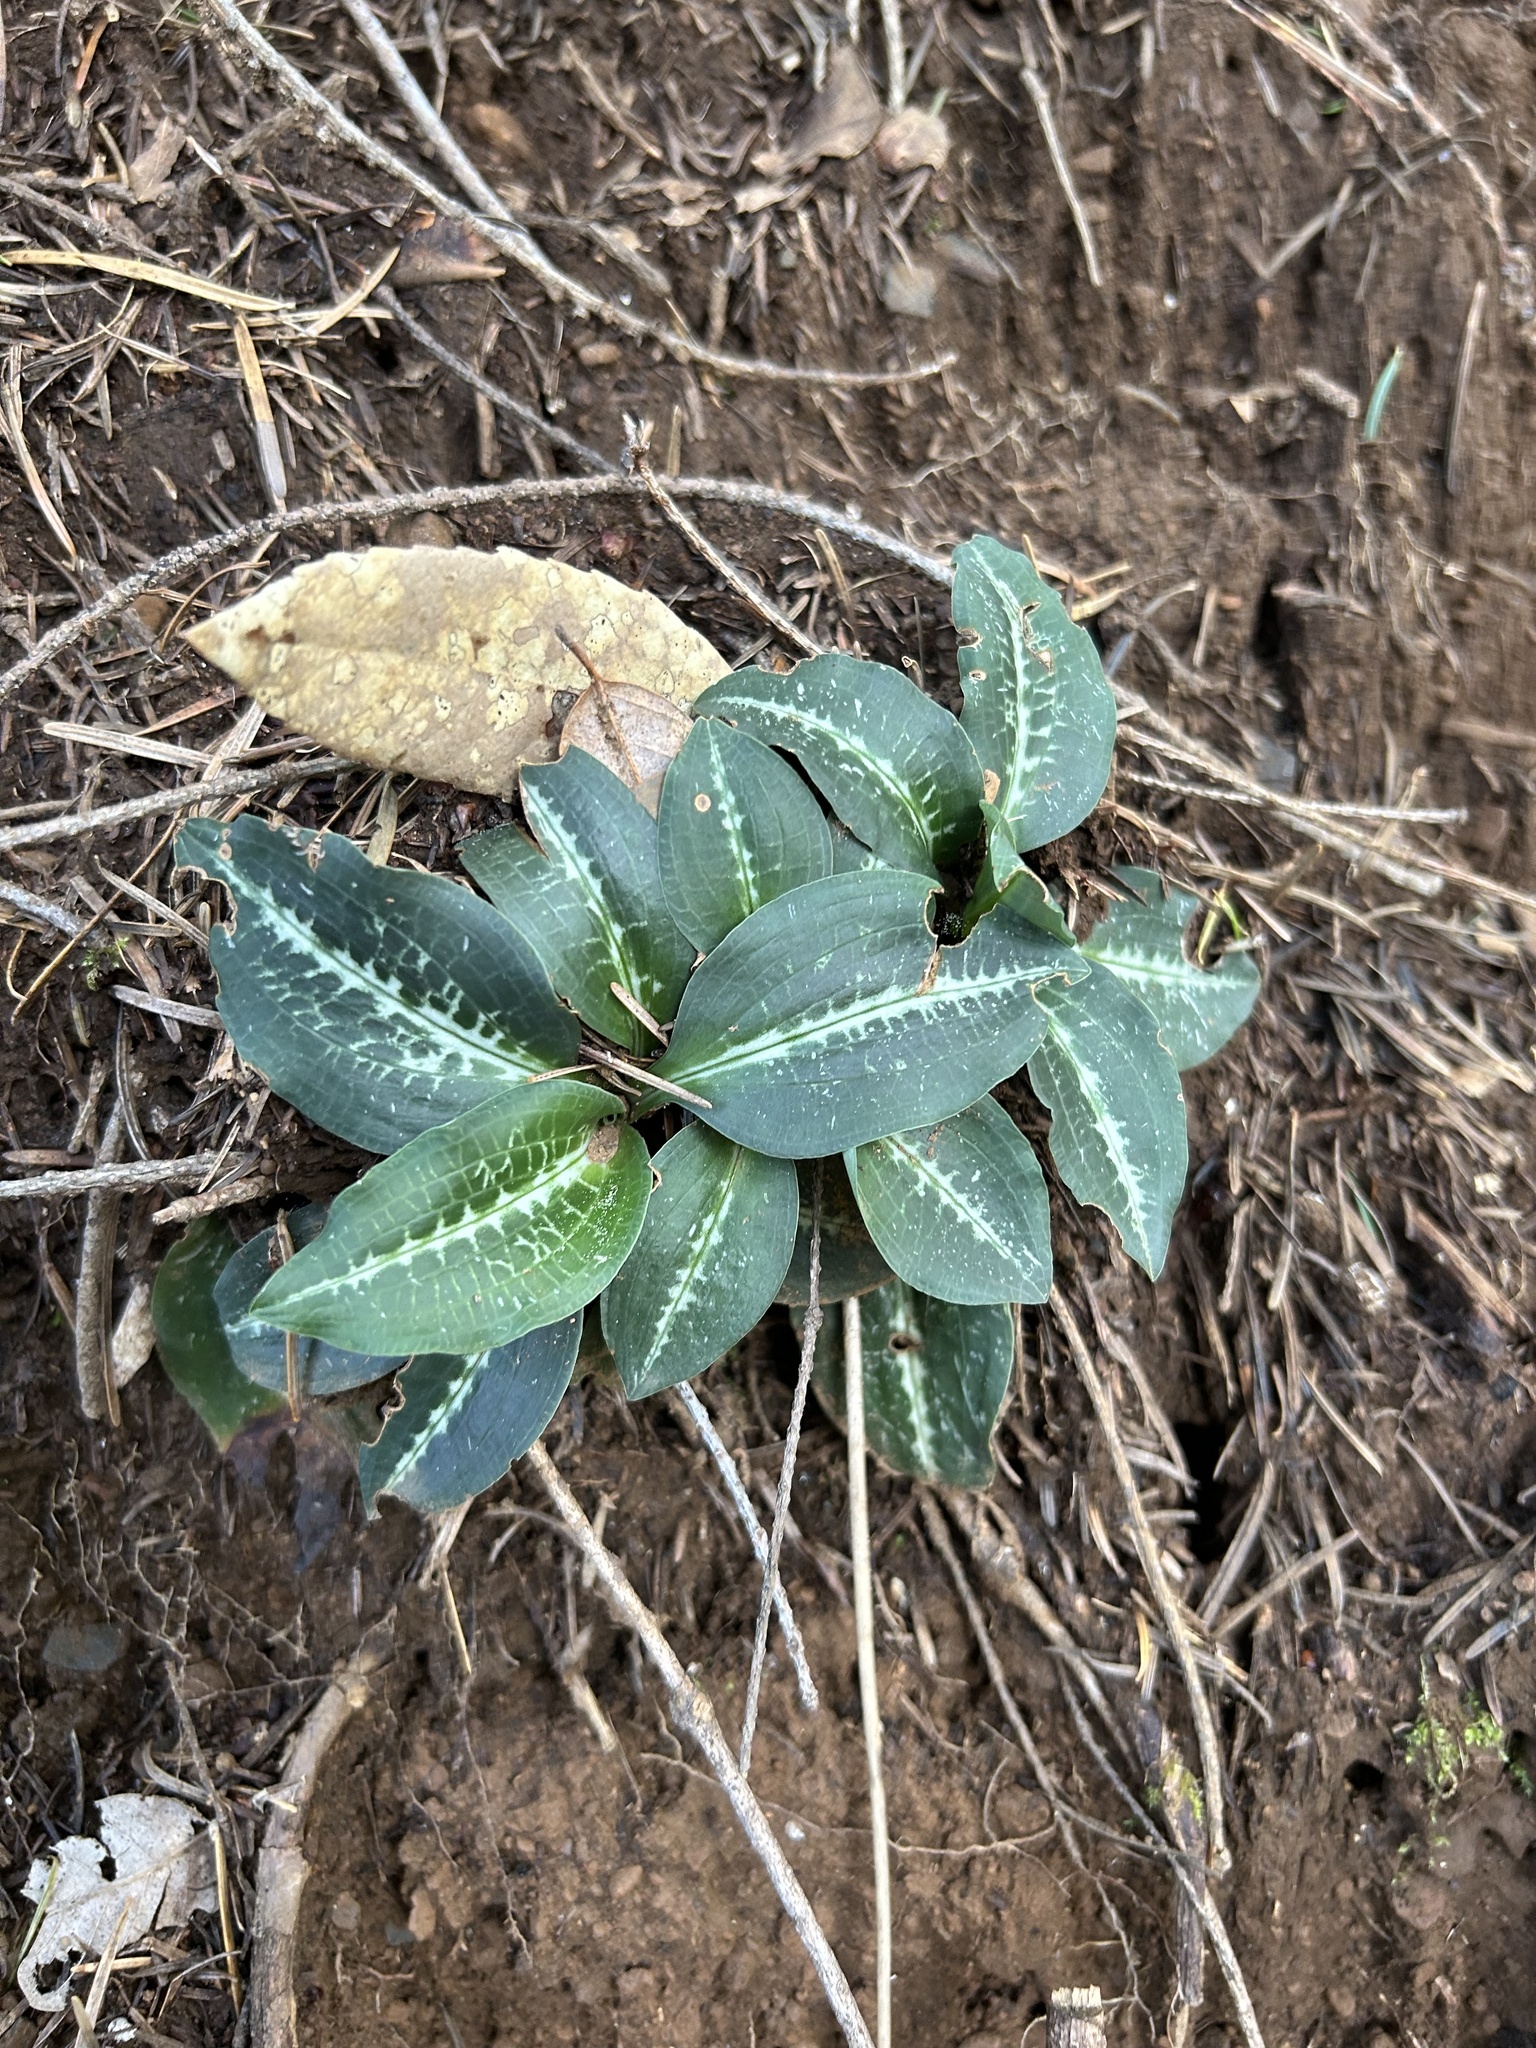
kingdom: Plantae
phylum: Tracheophyta
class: Liliopsida
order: Asparagales
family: Orchidaceae
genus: Goodyera
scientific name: Goodyera oblongifolia
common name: Giant rattlesnake-plantain
